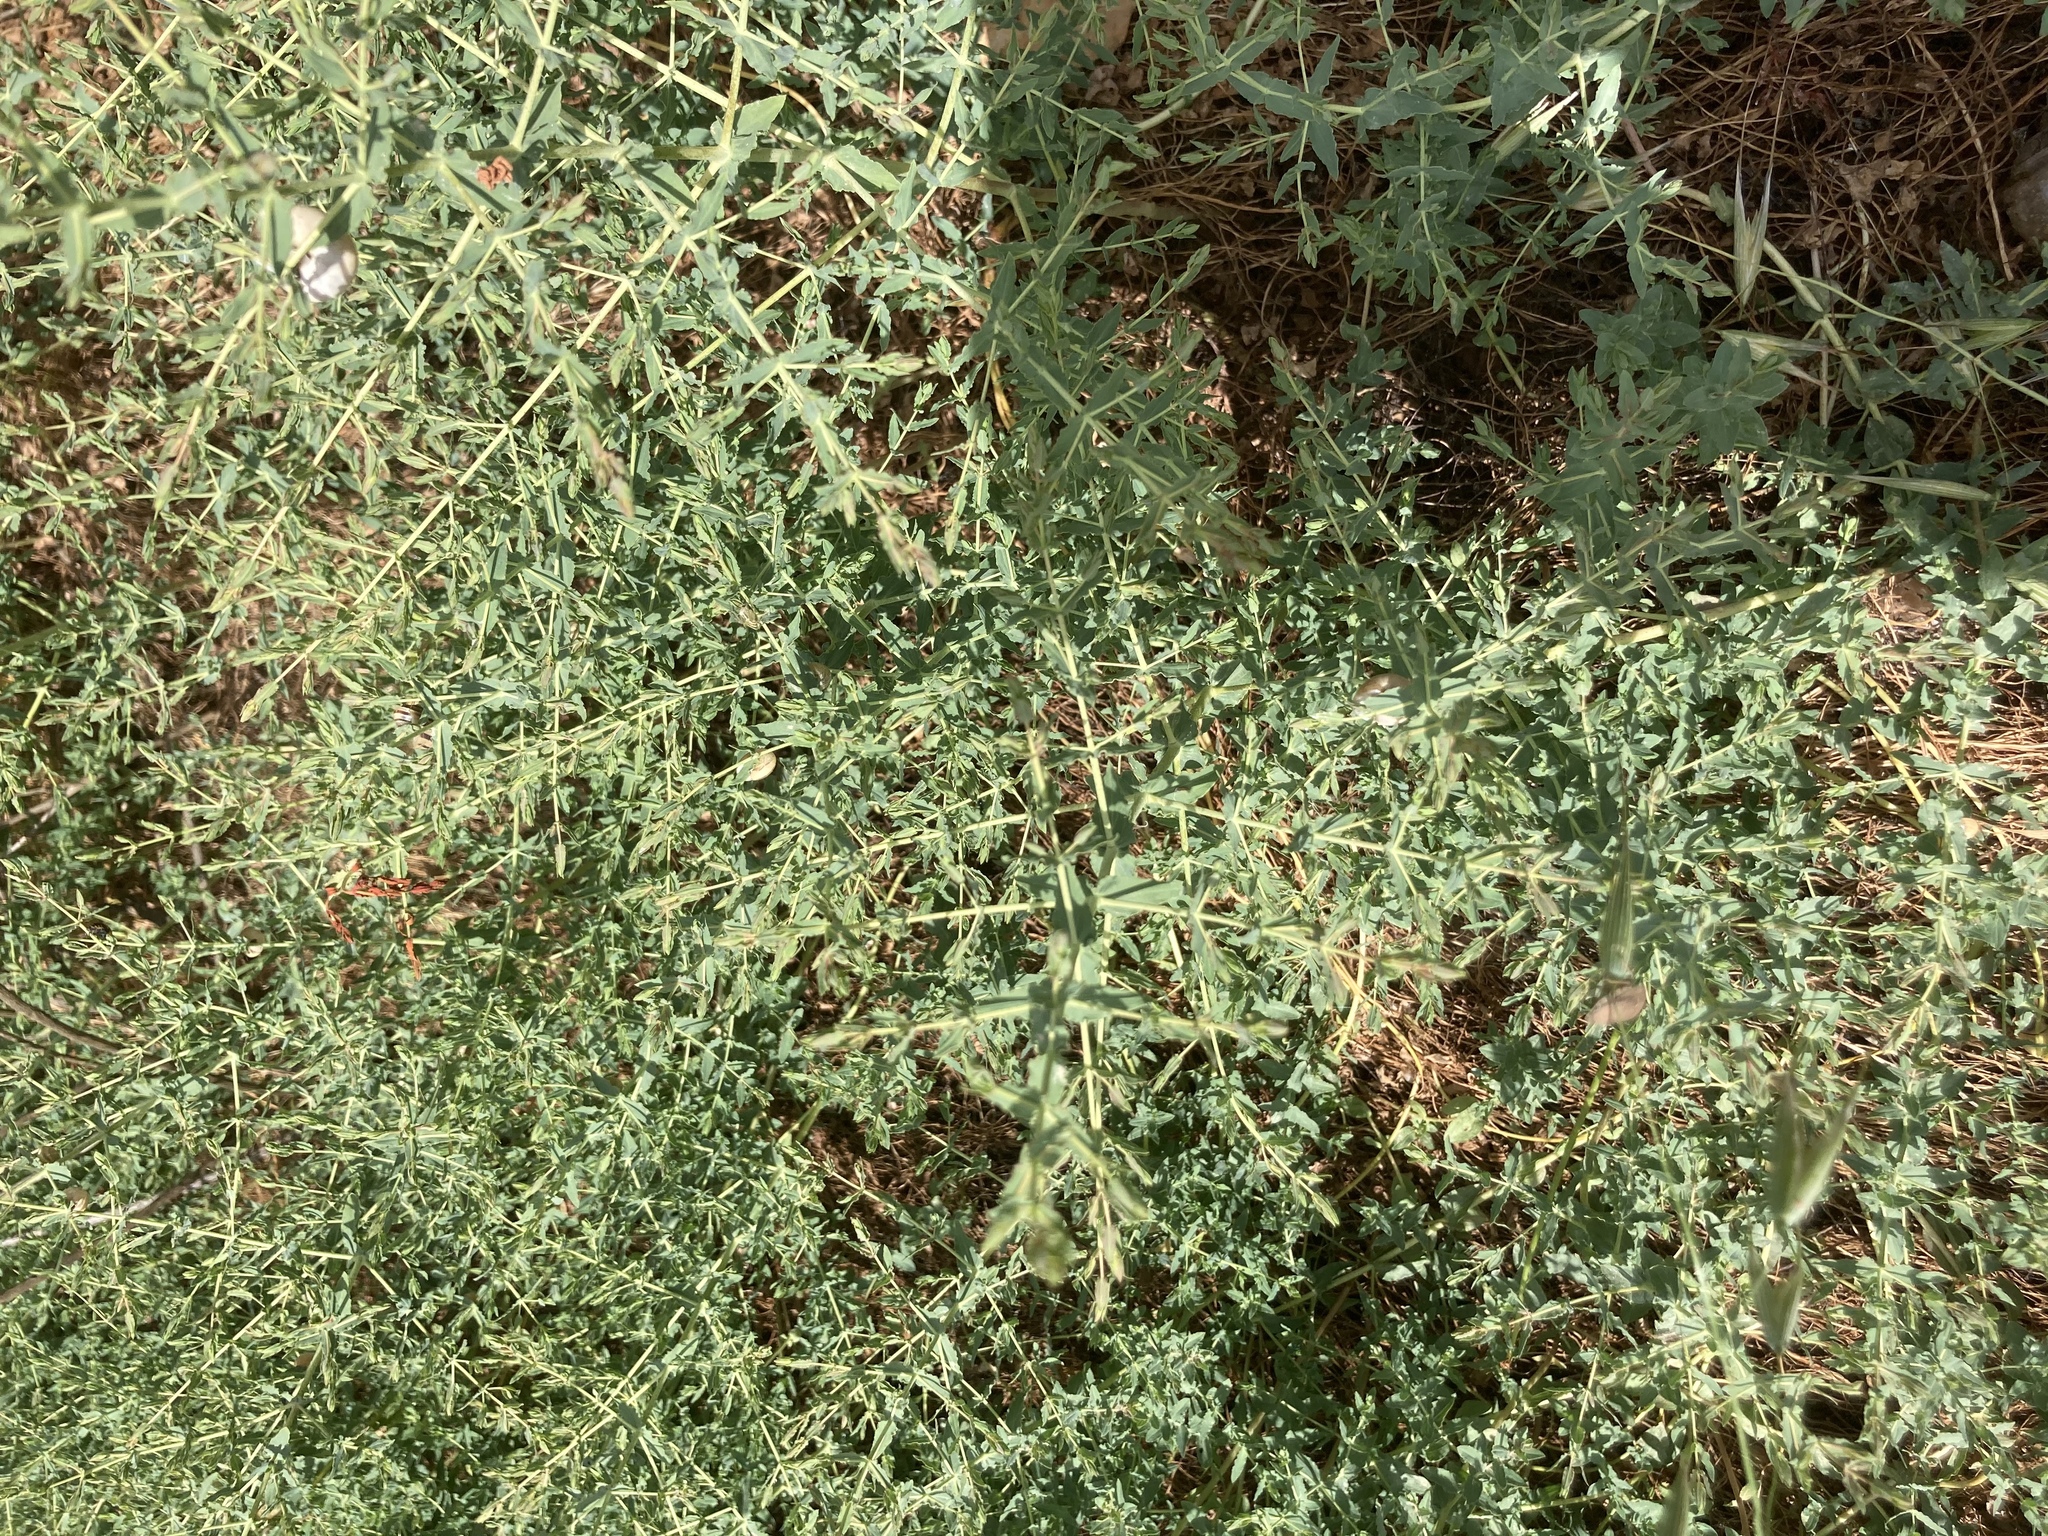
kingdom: Plantae
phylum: Tracheophyta
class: Magnoliopsida
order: Fabales
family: Fabaceae
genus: Alhagi
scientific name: Alhagi graecorum
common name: Persian mannaplant
